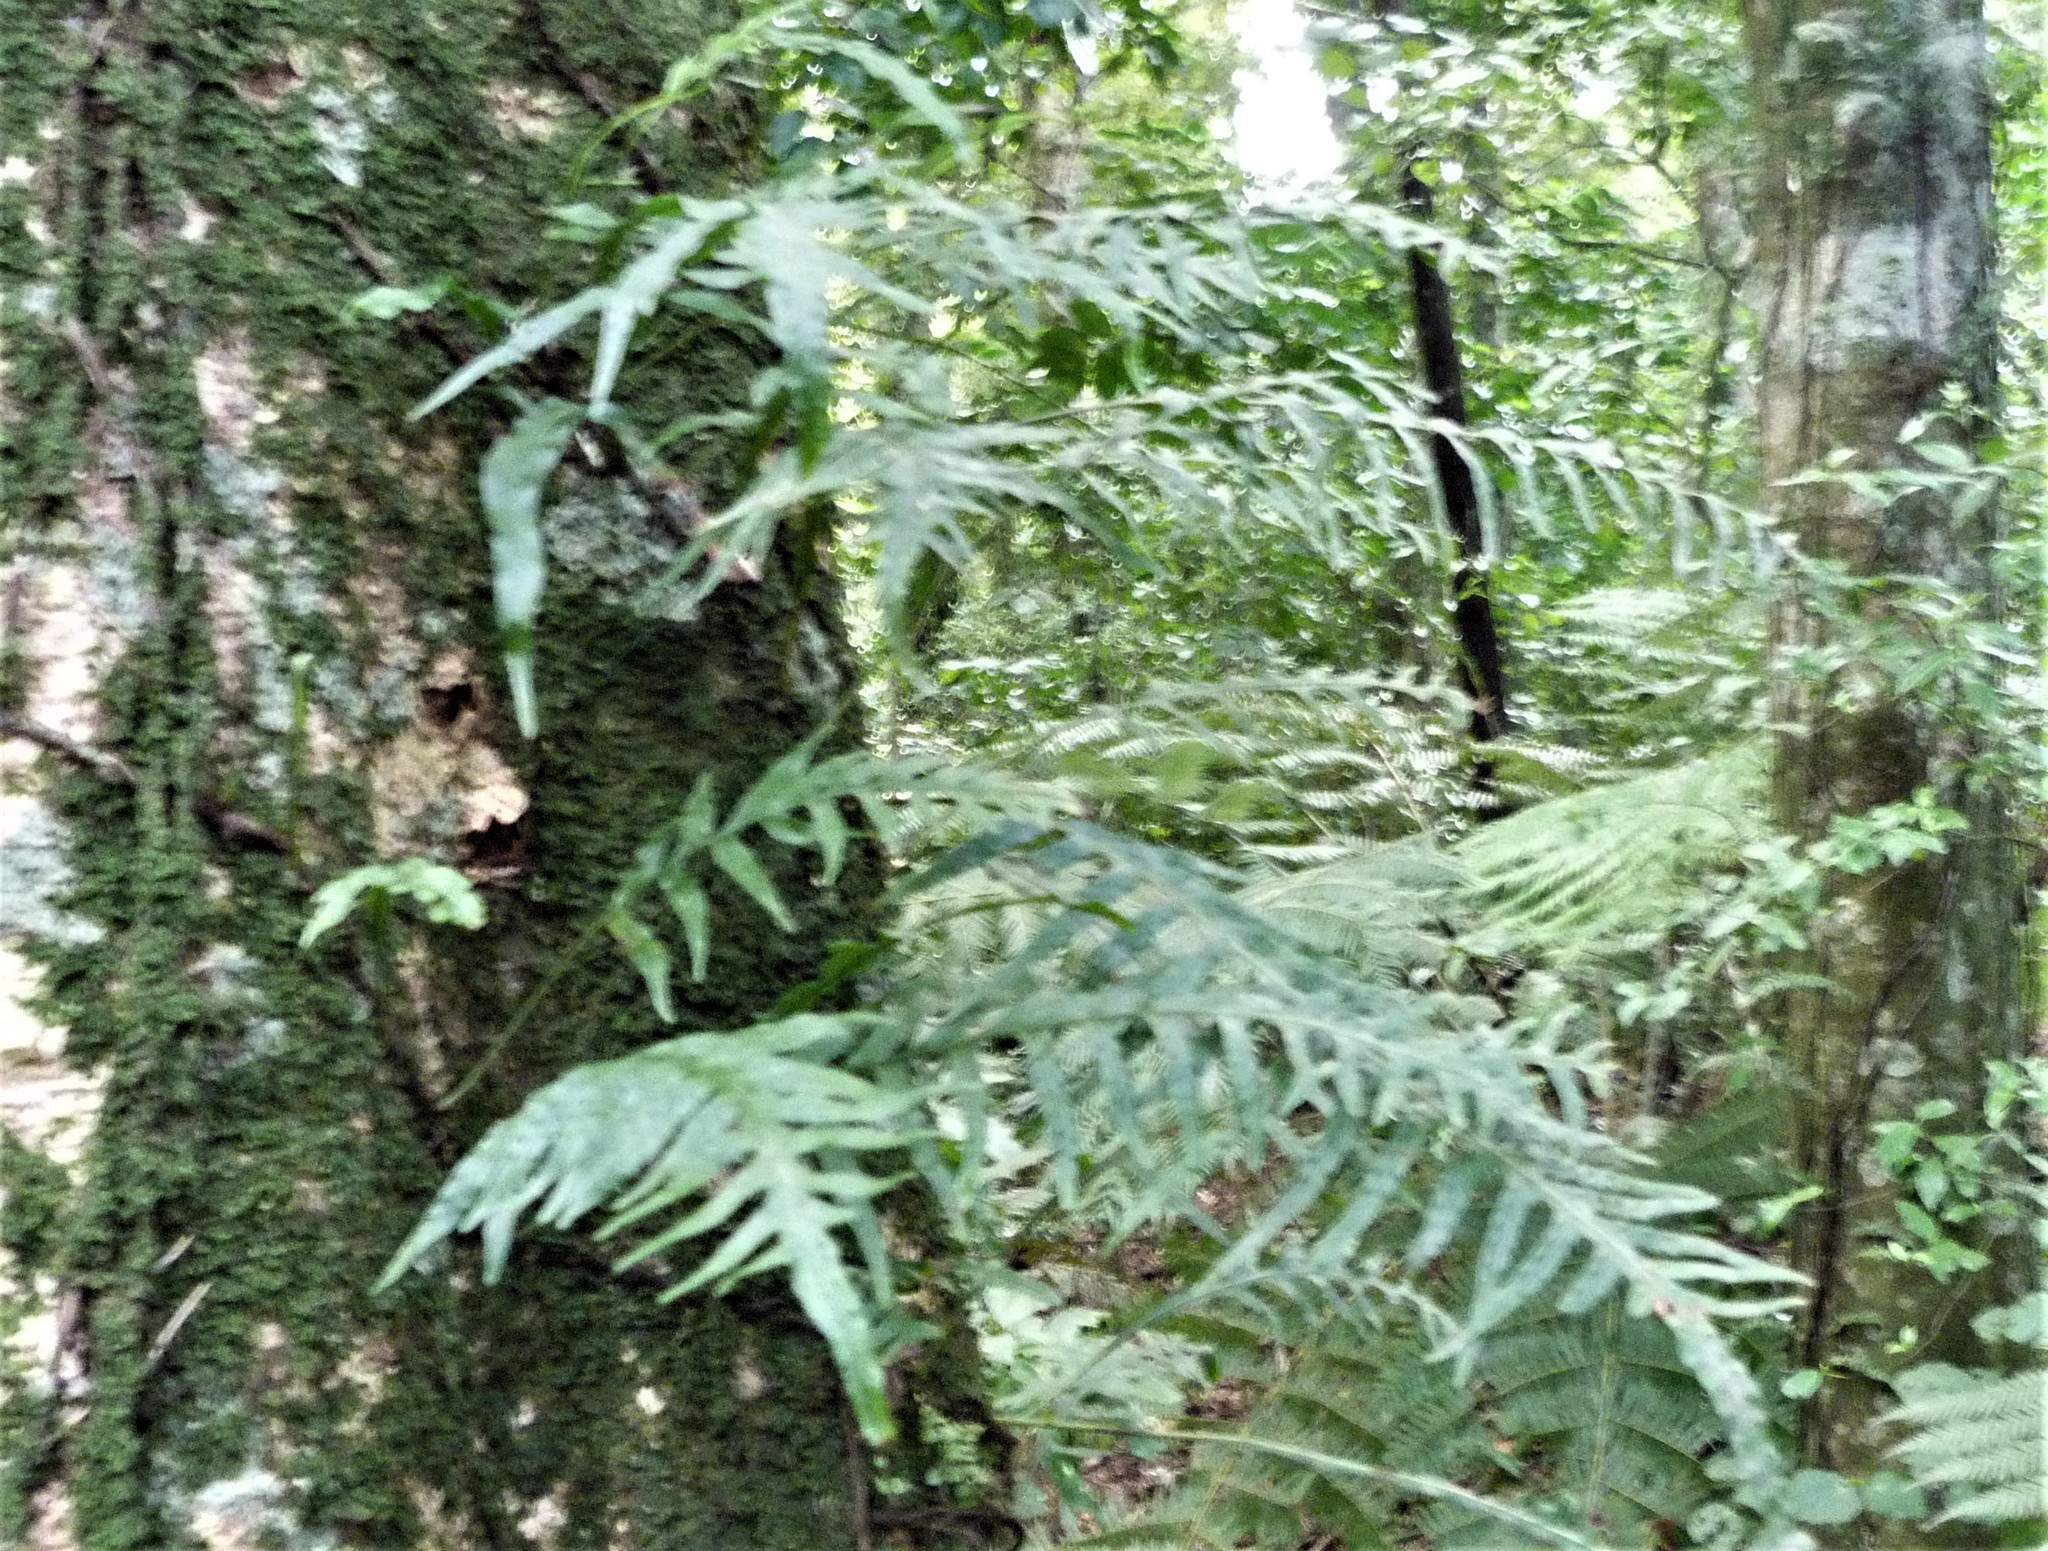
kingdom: Plantae
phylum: Tracheophyta
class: Polypodiopsida
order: Polypodiales
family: Polypodiaceae
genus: Lecanopteris
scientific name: Lecanopteris scandens
